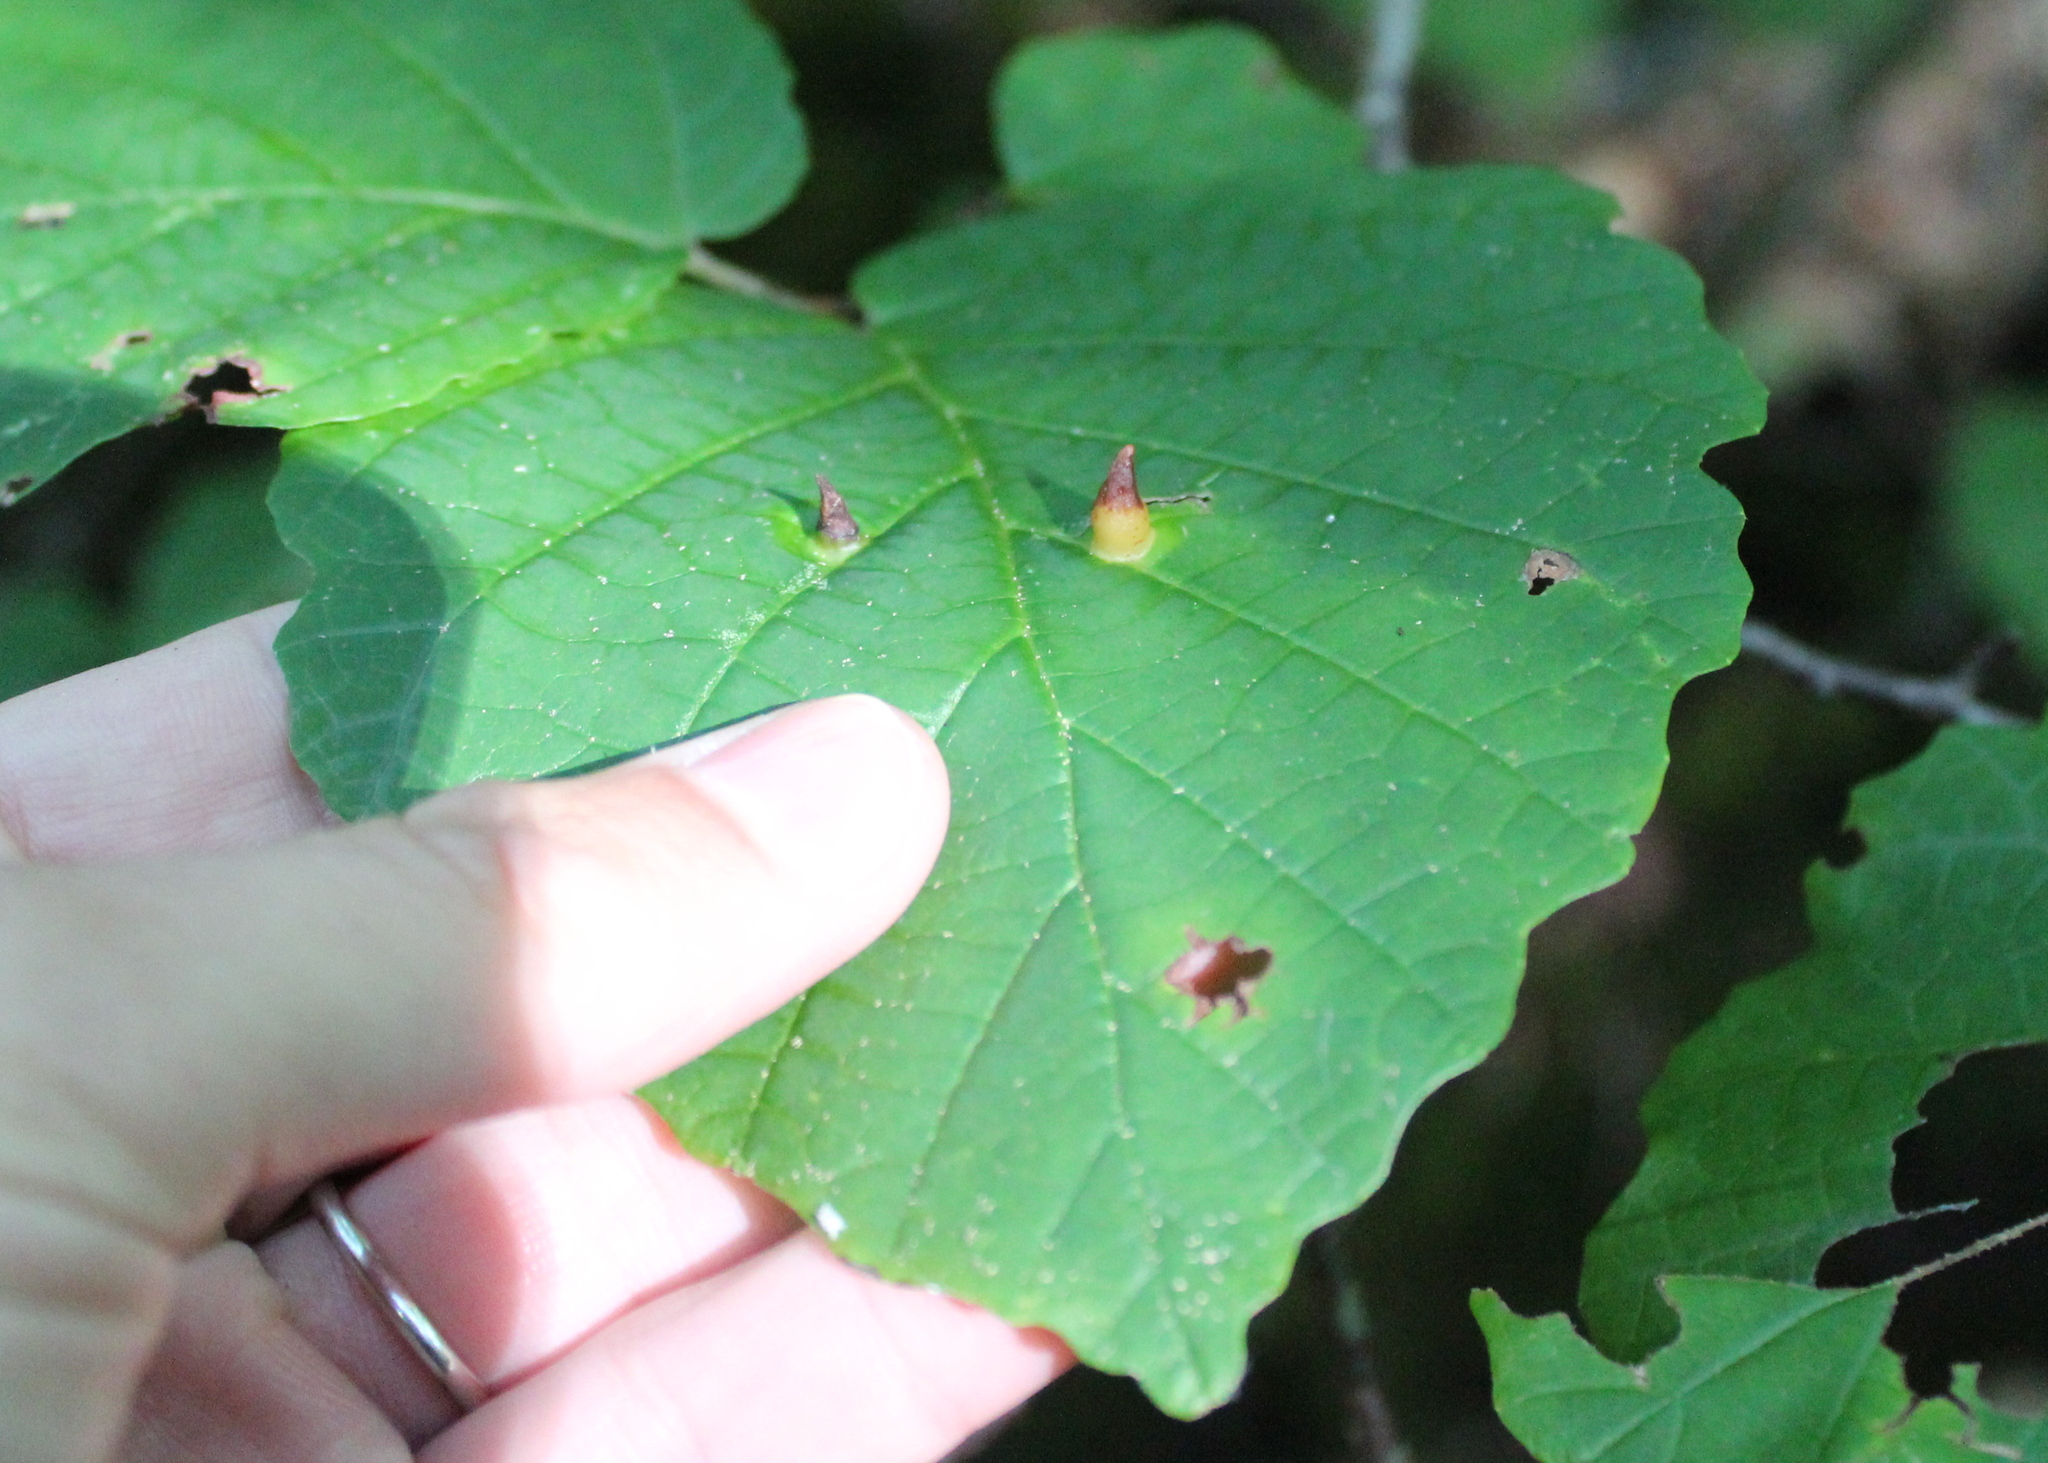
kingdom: Animalia
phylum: Arthropoda
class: Insecta
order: Hemiptera
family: Aphididae
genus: Hormaphis
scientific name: Hormaphis hamamelidis
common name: Witch-hazel cone gall aphid
